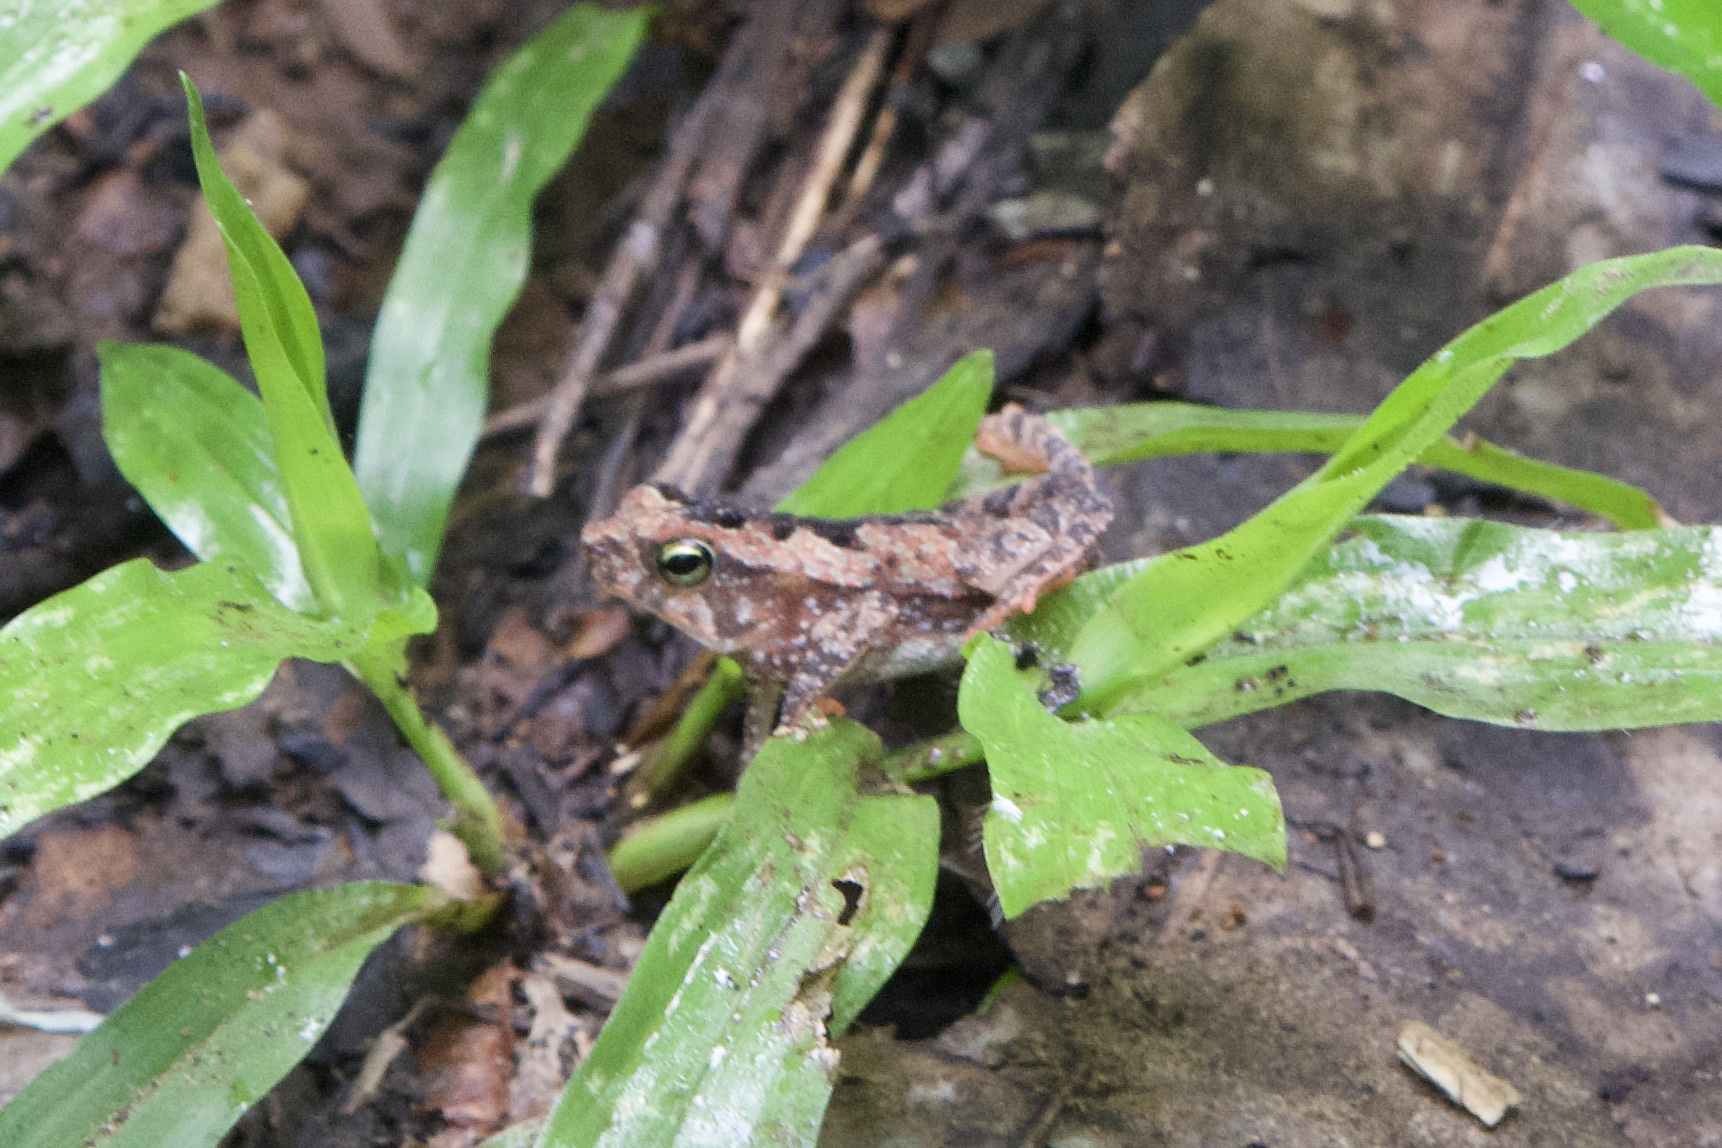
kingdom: Animalia
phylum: Chordata
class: Amphibia
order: Anura
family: Bufonidae
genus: Rhinella
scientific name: Rhinella alata
